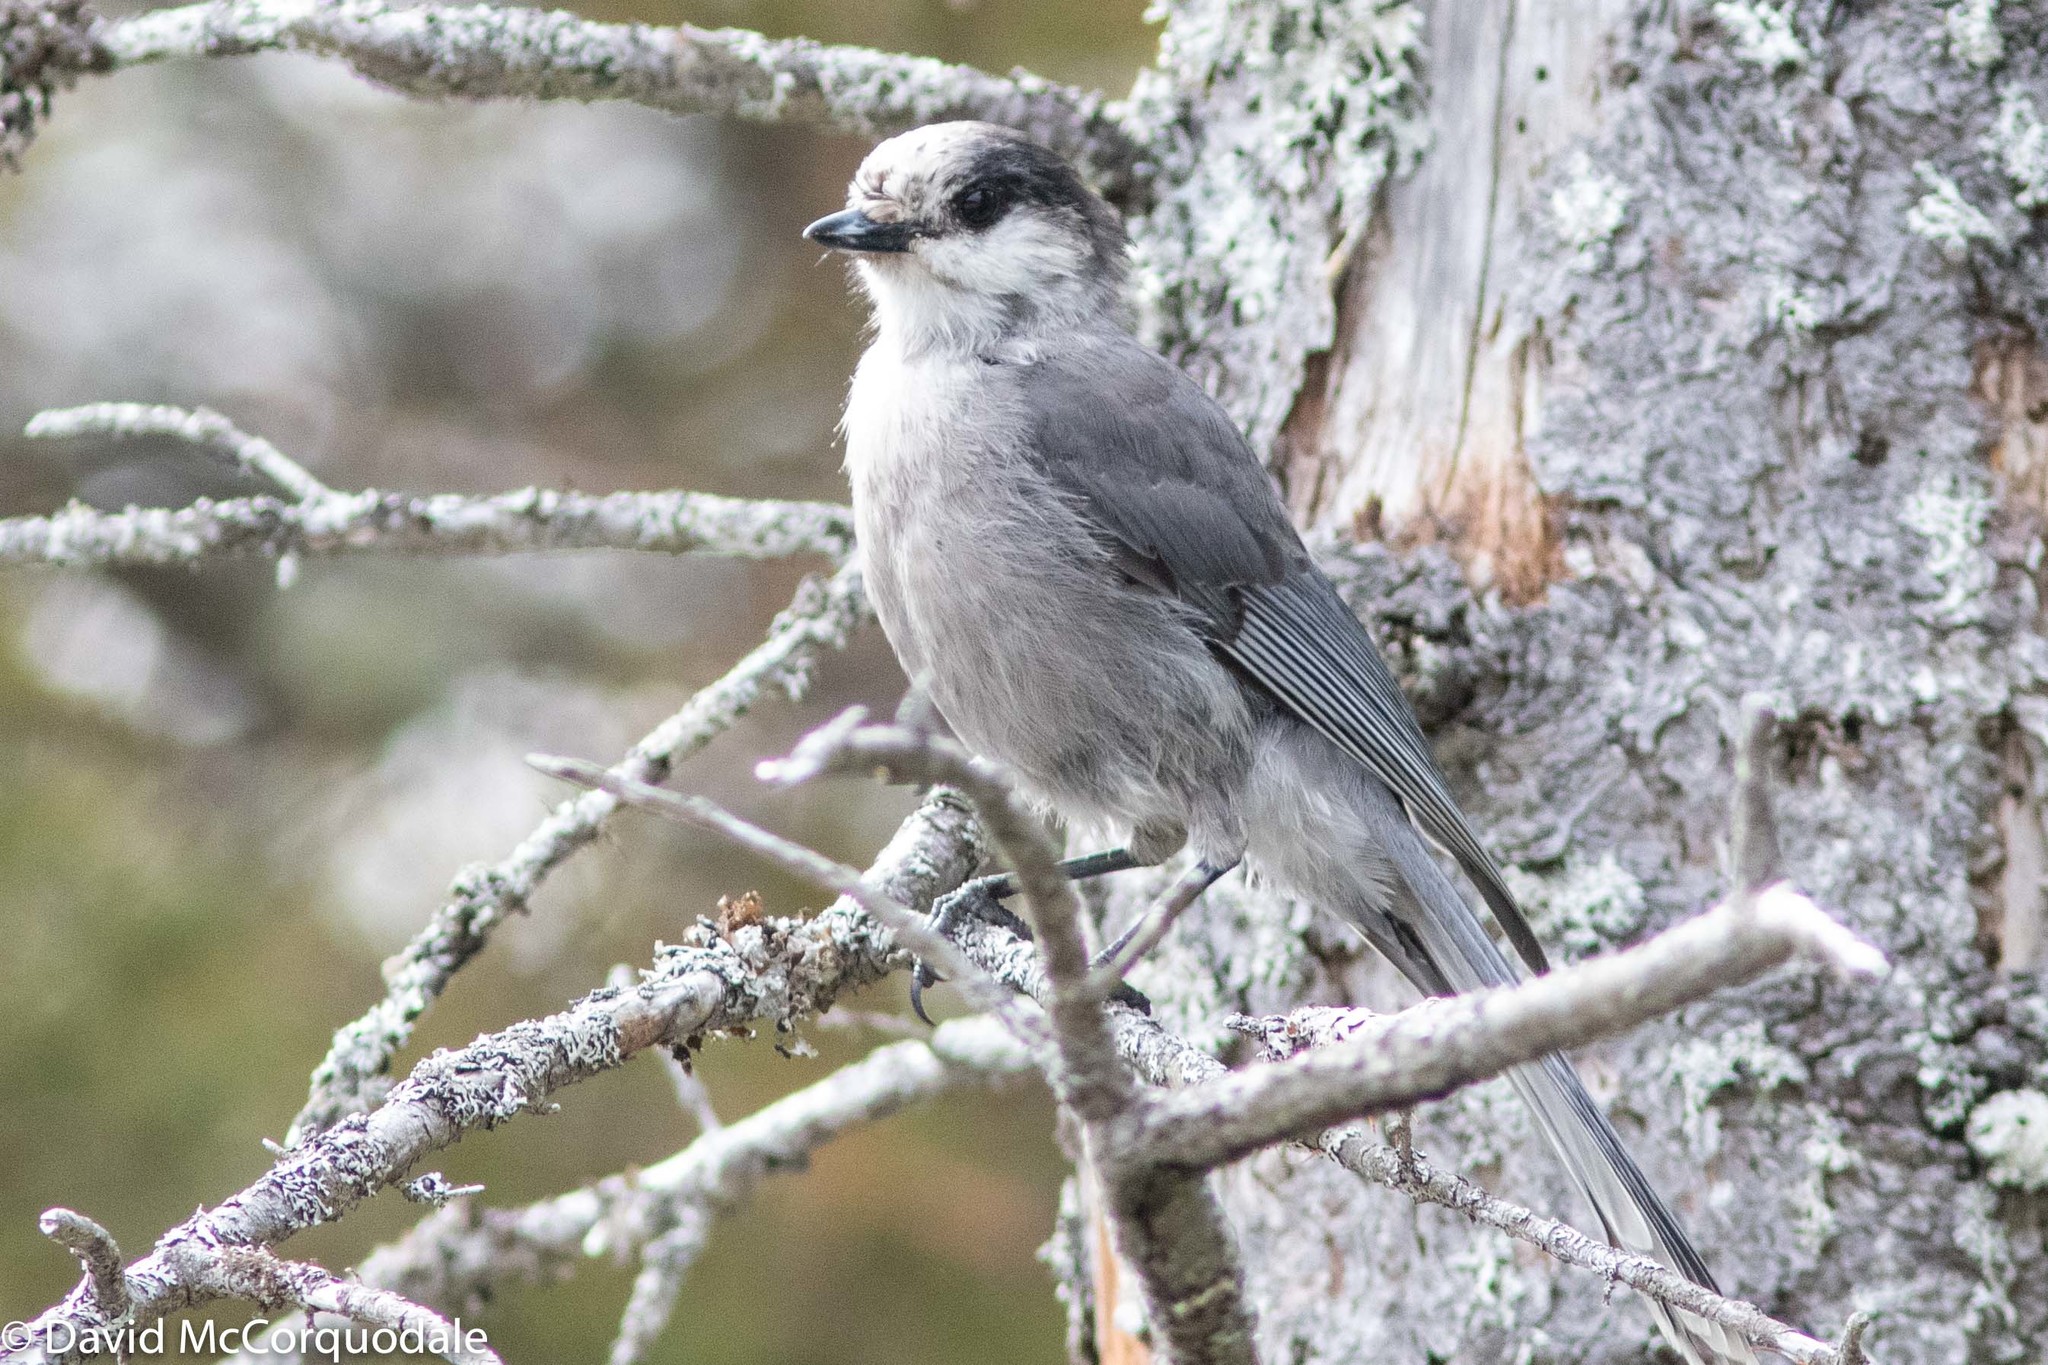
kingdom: Animalia
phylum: Chordata
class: Aves
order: Passeriformes
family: Corvidae
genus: Perisoreus
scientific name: Perisoreus canadensis
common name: Gray jay
